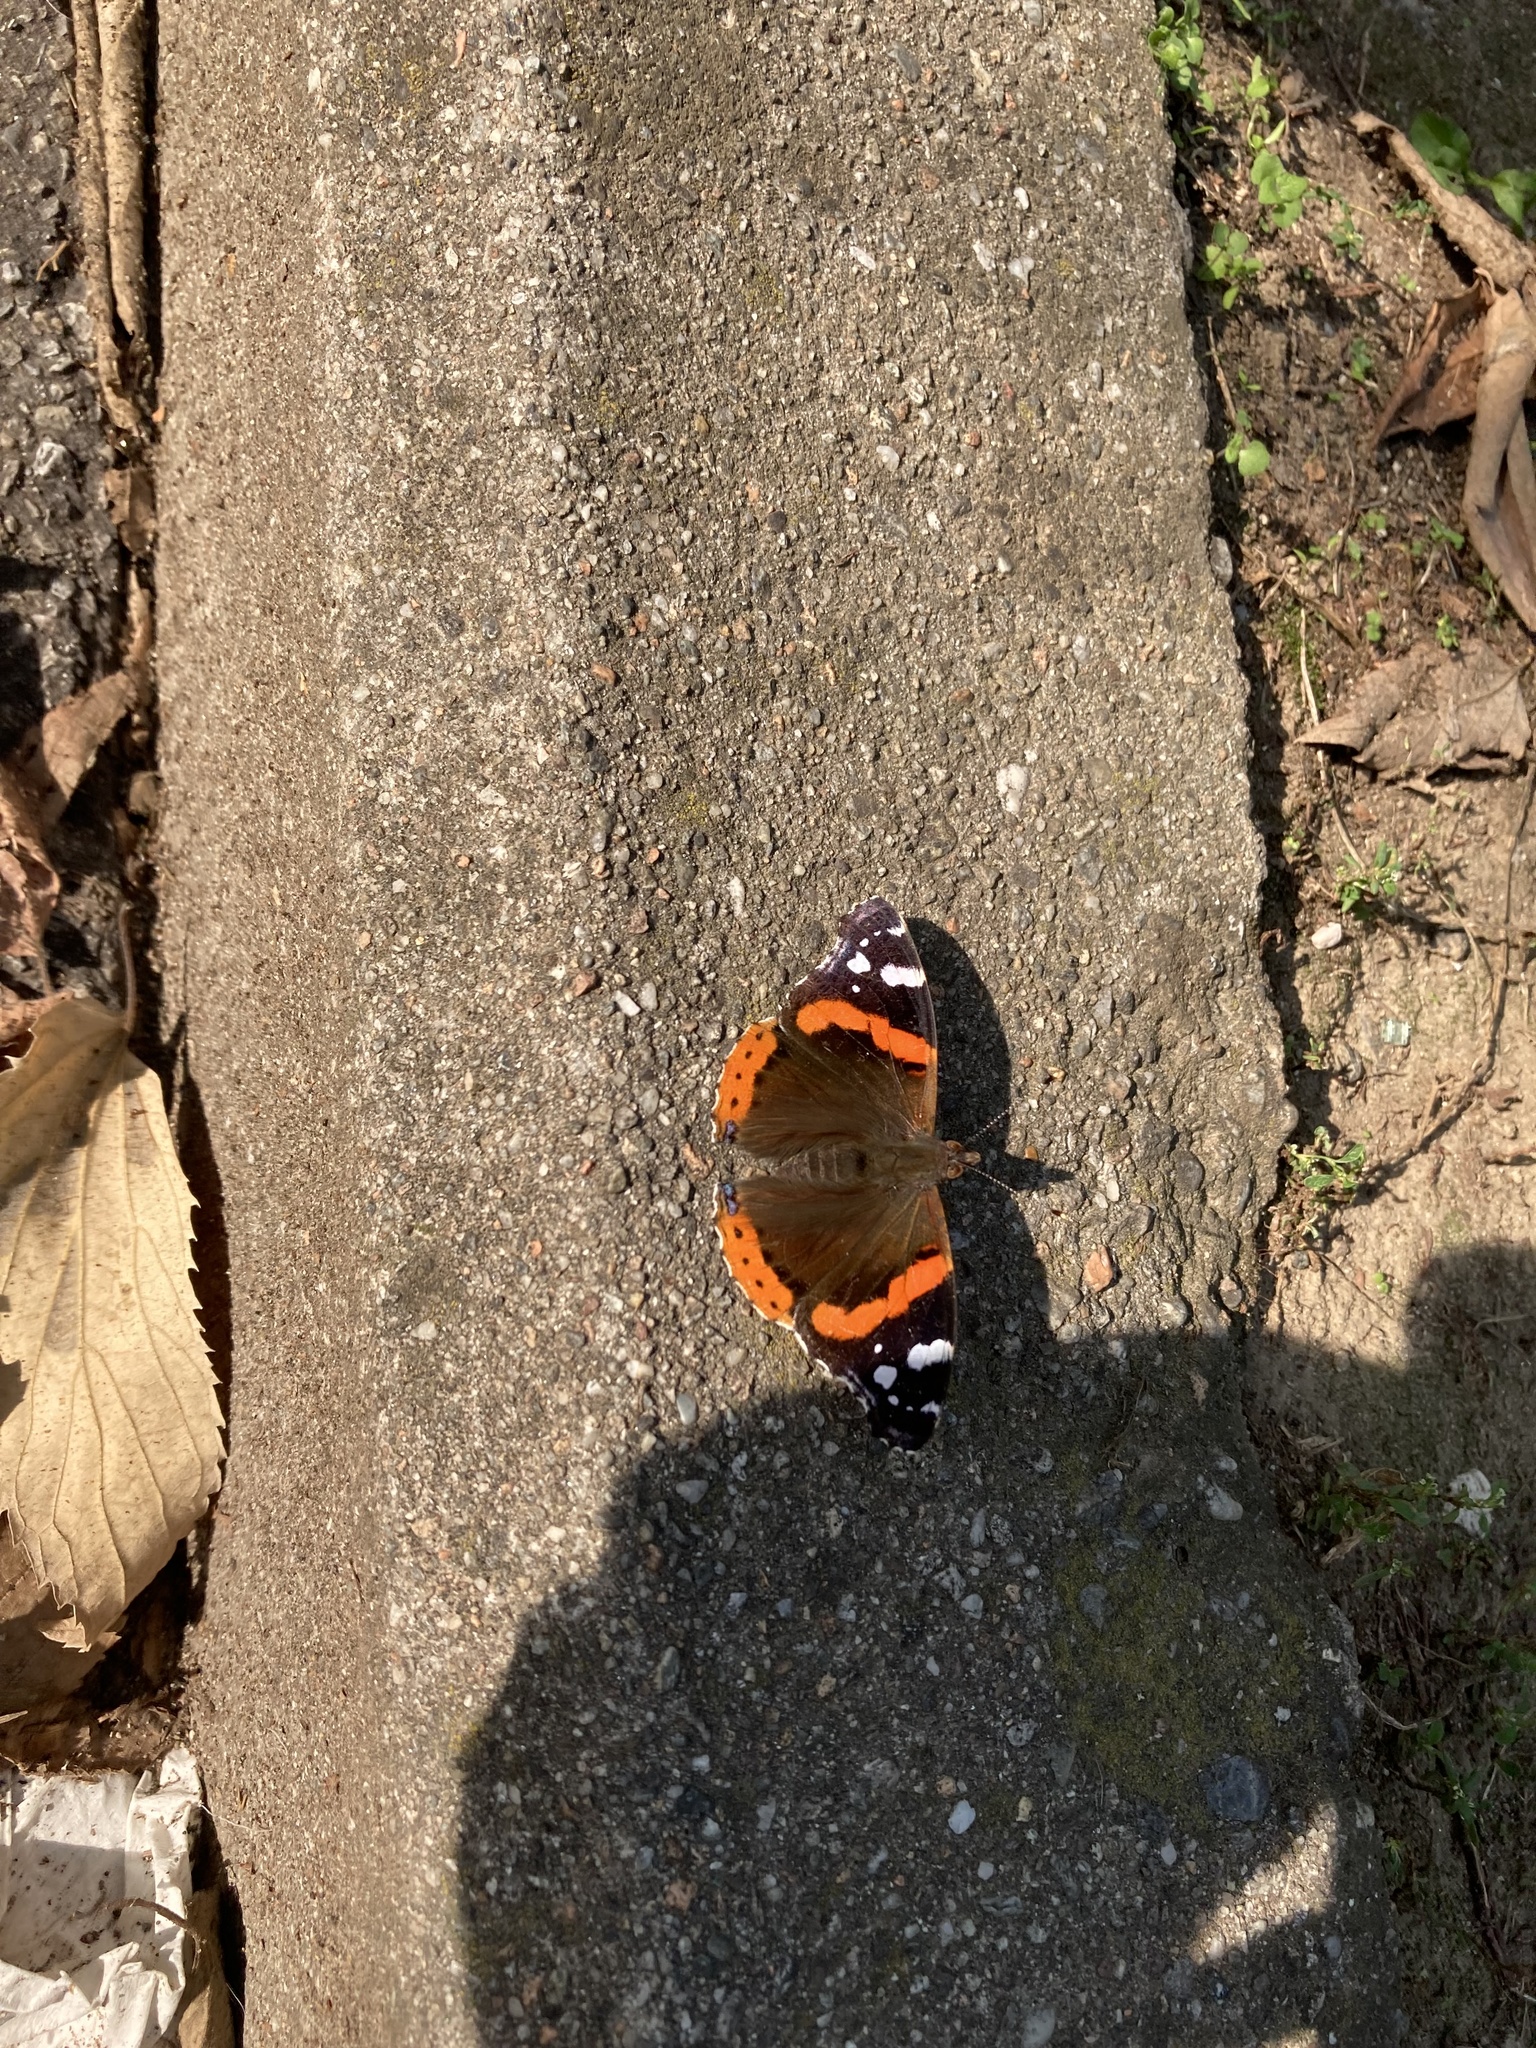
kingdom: Animalia
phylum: Arthropoda
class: Insecta
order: Lepidoptera
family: Nymphalidae
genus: Vanessa
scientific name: Vanessa atalanta
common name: Red admiral
